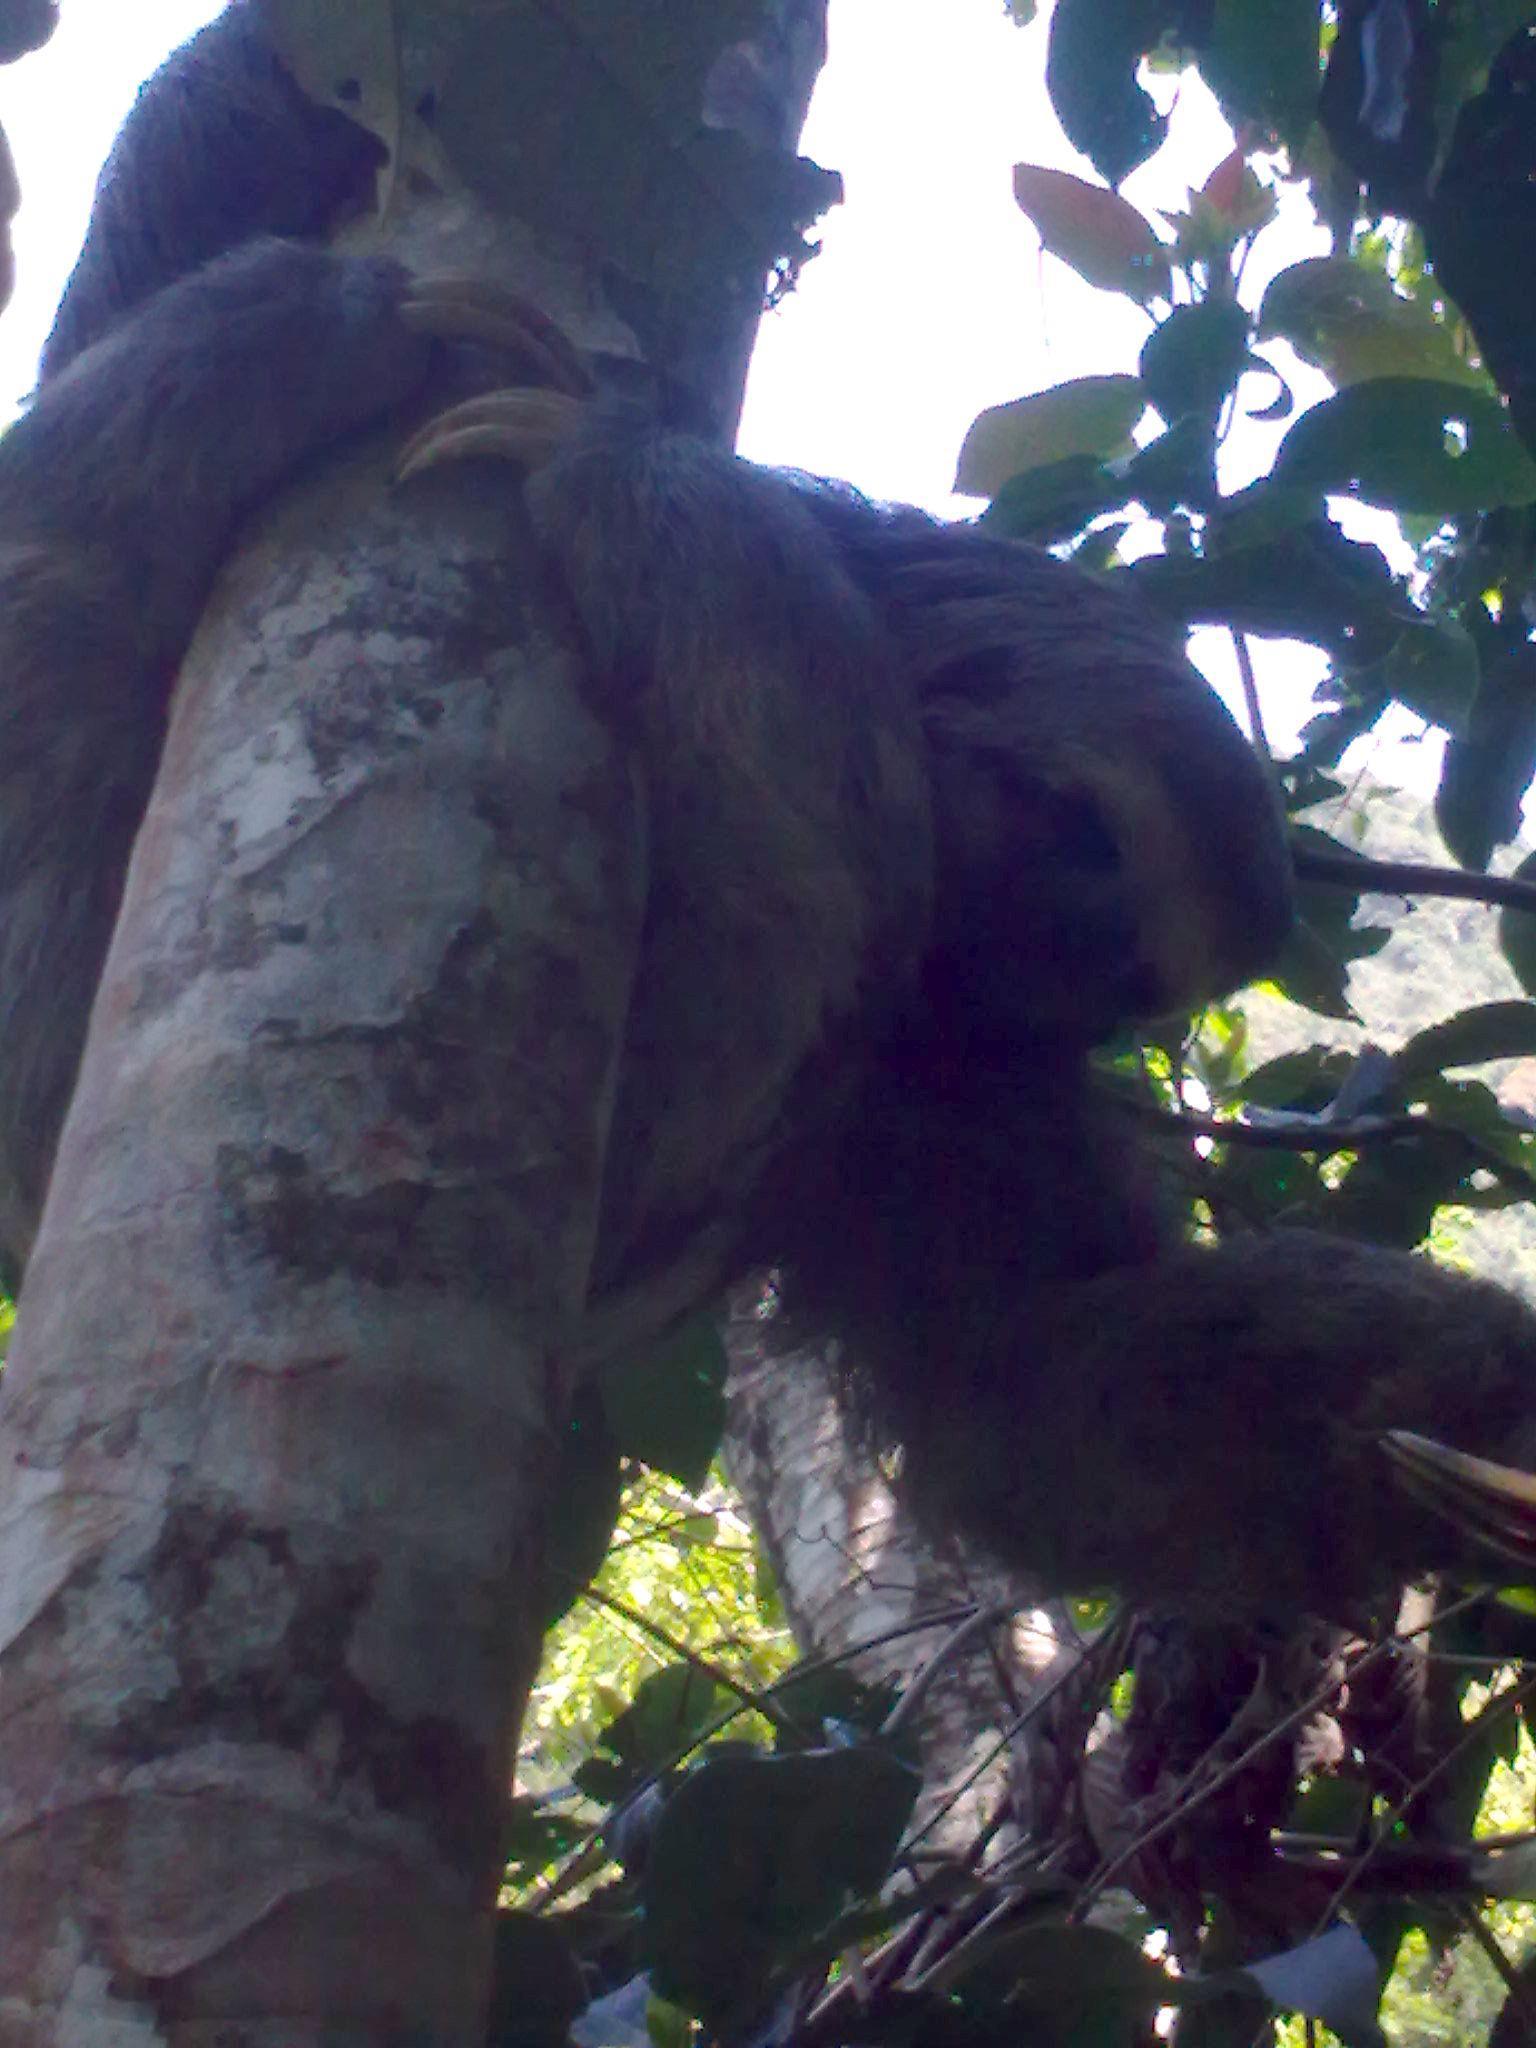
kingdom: Animalia
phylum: Chordata
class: Mammalia
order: Pilosa
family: Bradypodidae
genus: Bradypus
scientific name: Bradypus variegatus
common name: Brown-throated three-toed sloth
